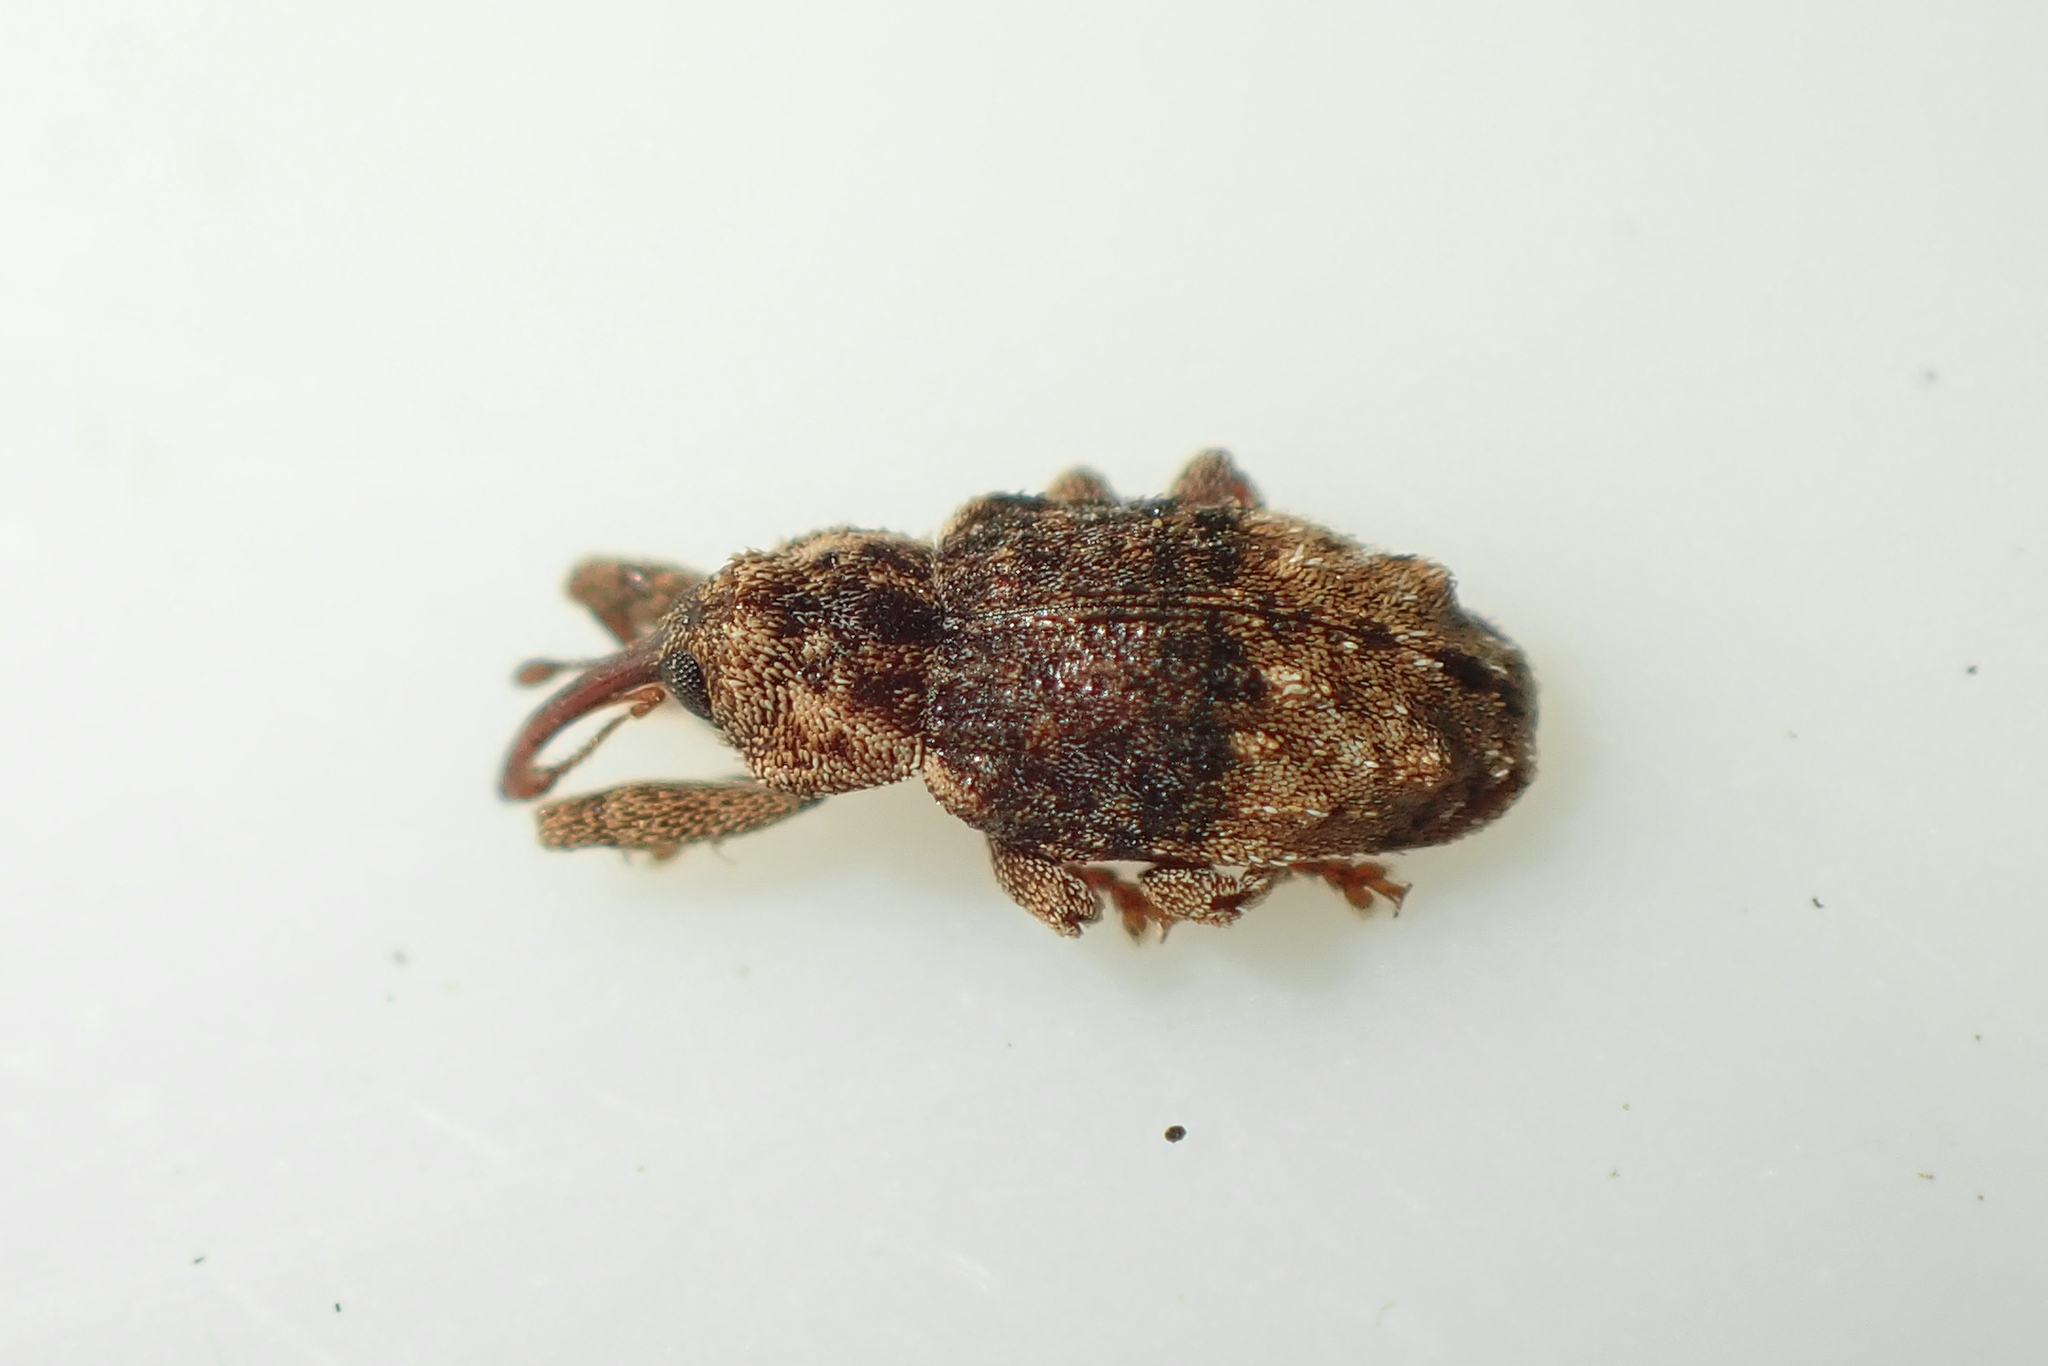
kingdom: Animalia
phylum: Arthropoda
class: Insecta
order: Coleoptera
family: Curculionidae
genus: Emplesis
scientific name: Emplesis bifoveata
